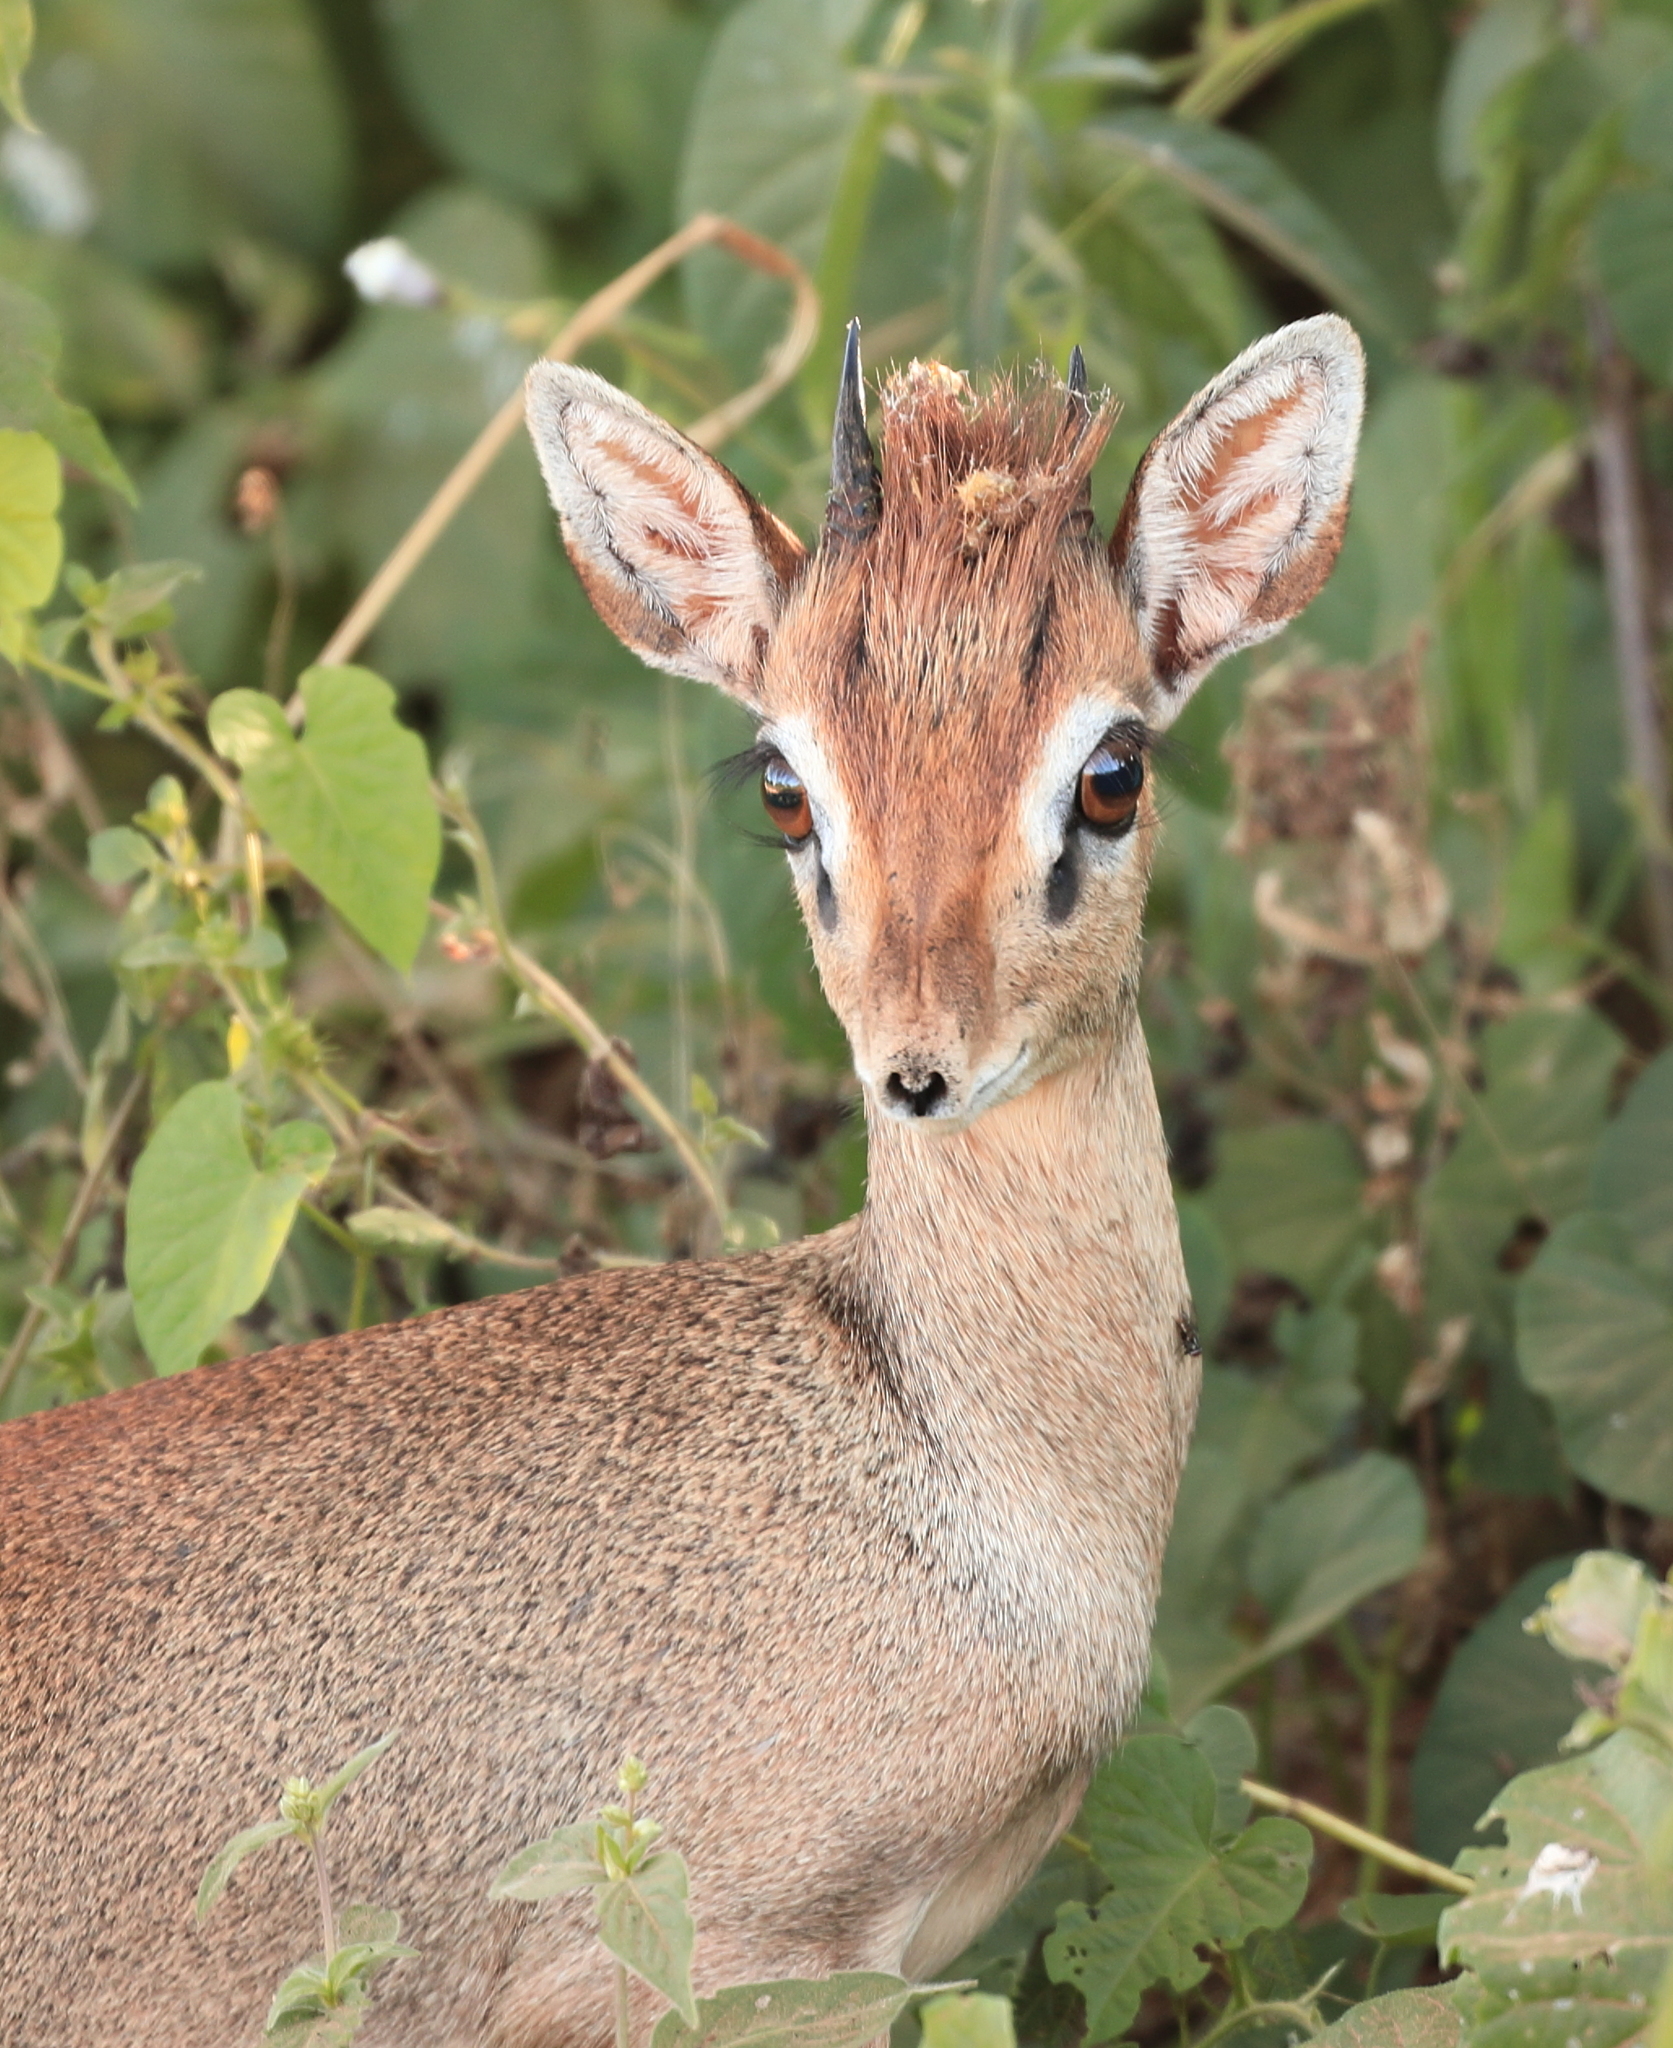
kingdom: Animalia
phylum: Chordata
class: Mammalia
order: Artiodactyla
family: Bovidae
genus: Madoqua
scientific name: Madoqua
